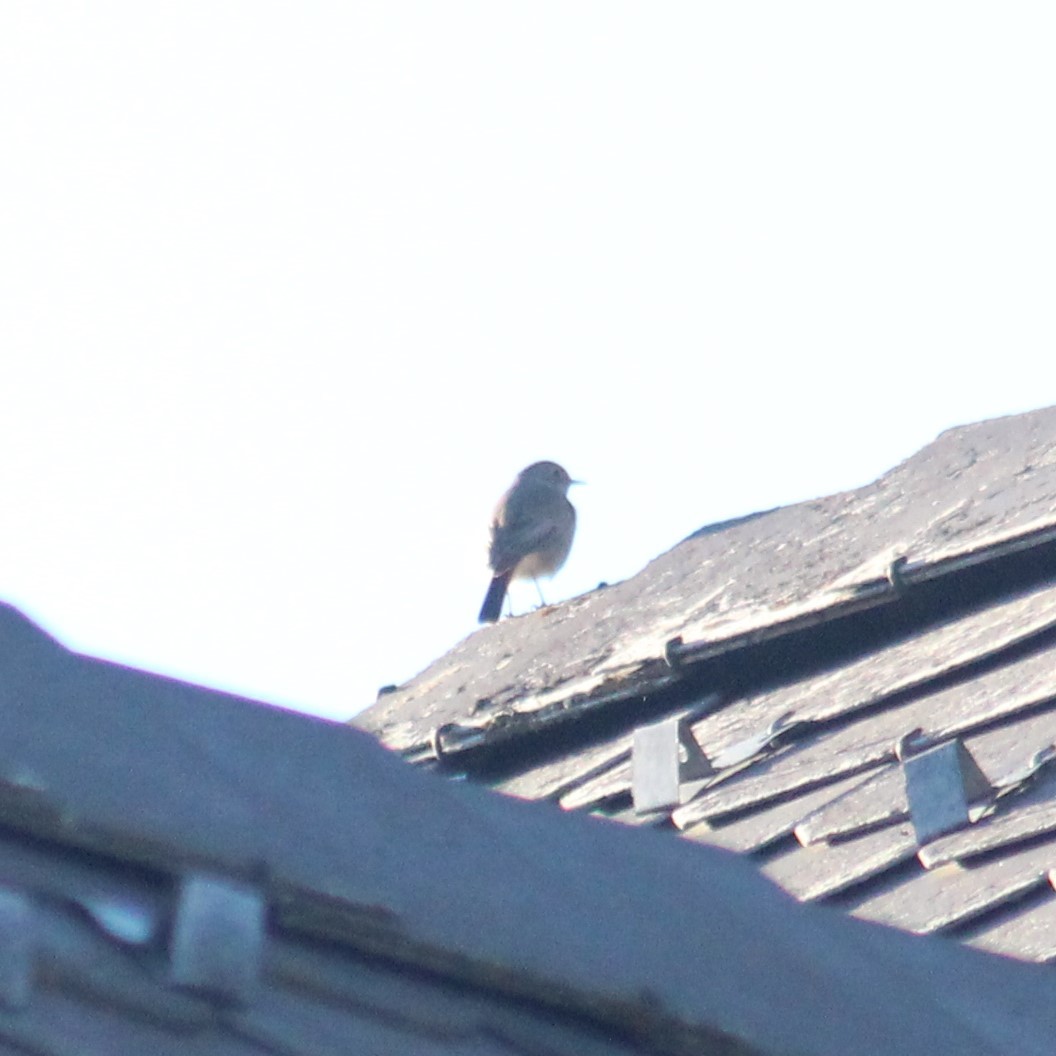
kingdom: Animalia
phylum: Chordata
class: Aves
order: Passeriformes
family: Muscicapidae
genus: Phoenicurus
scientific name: Phoenicurus ochruros
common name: Black redstart
